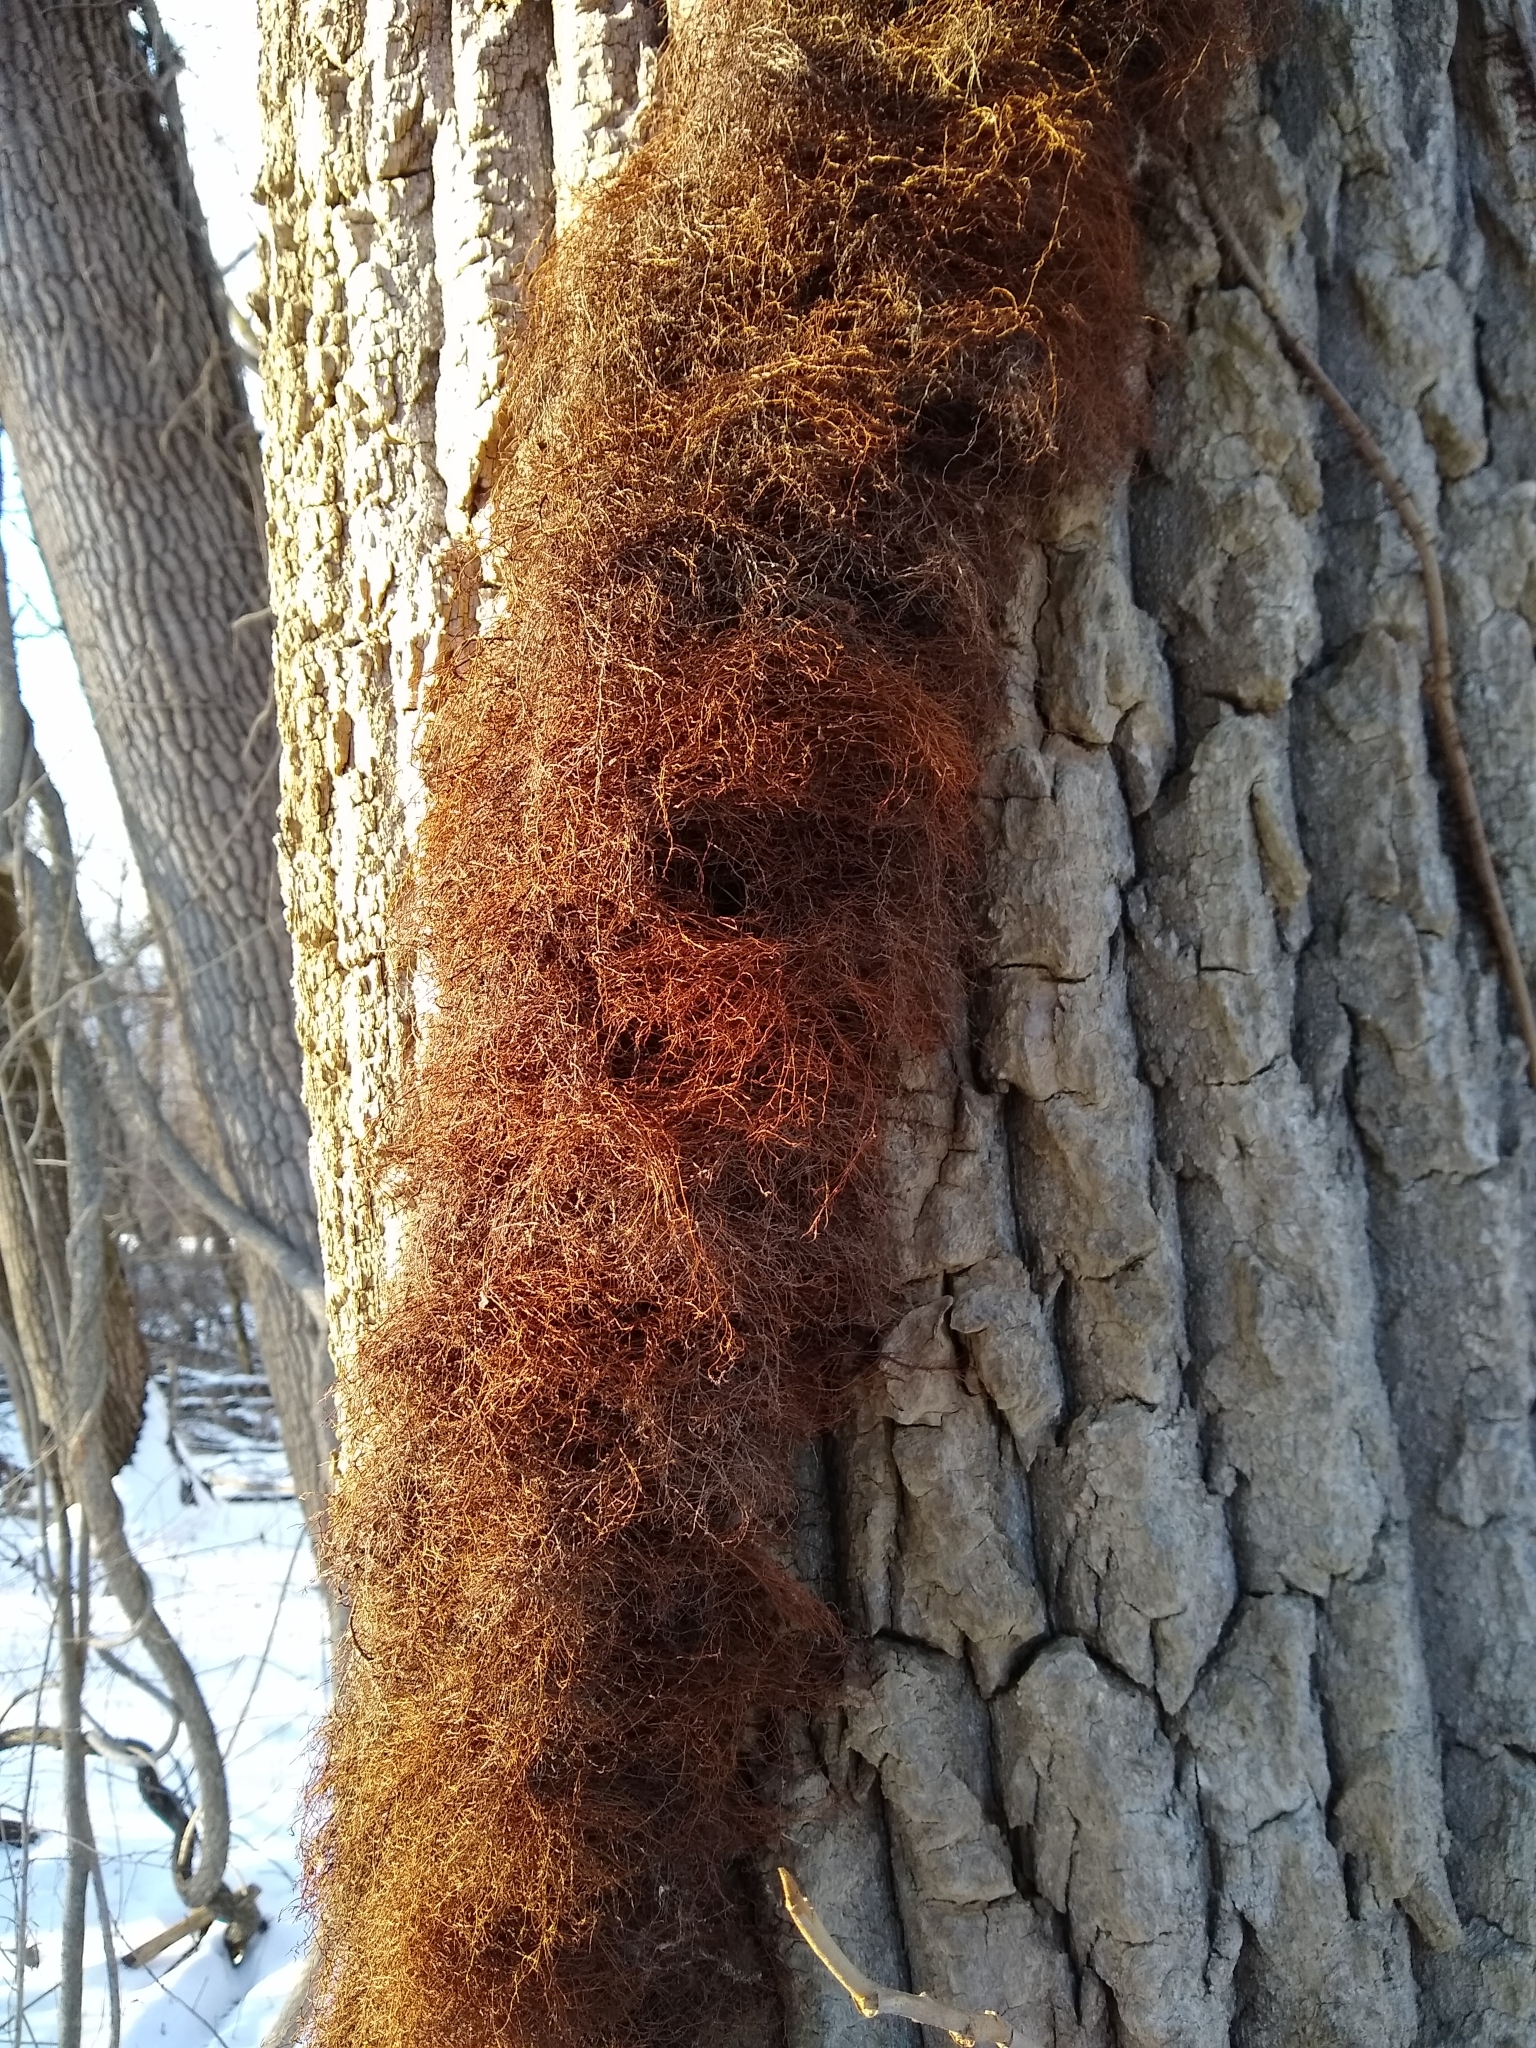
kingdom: Plantae
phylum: Tracheophyta
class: Magnoliopsida
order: Sapindales
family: Anacardiaceae
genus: Toxicodendron
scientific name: Toxicodendron radicans
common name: Poison ivy
